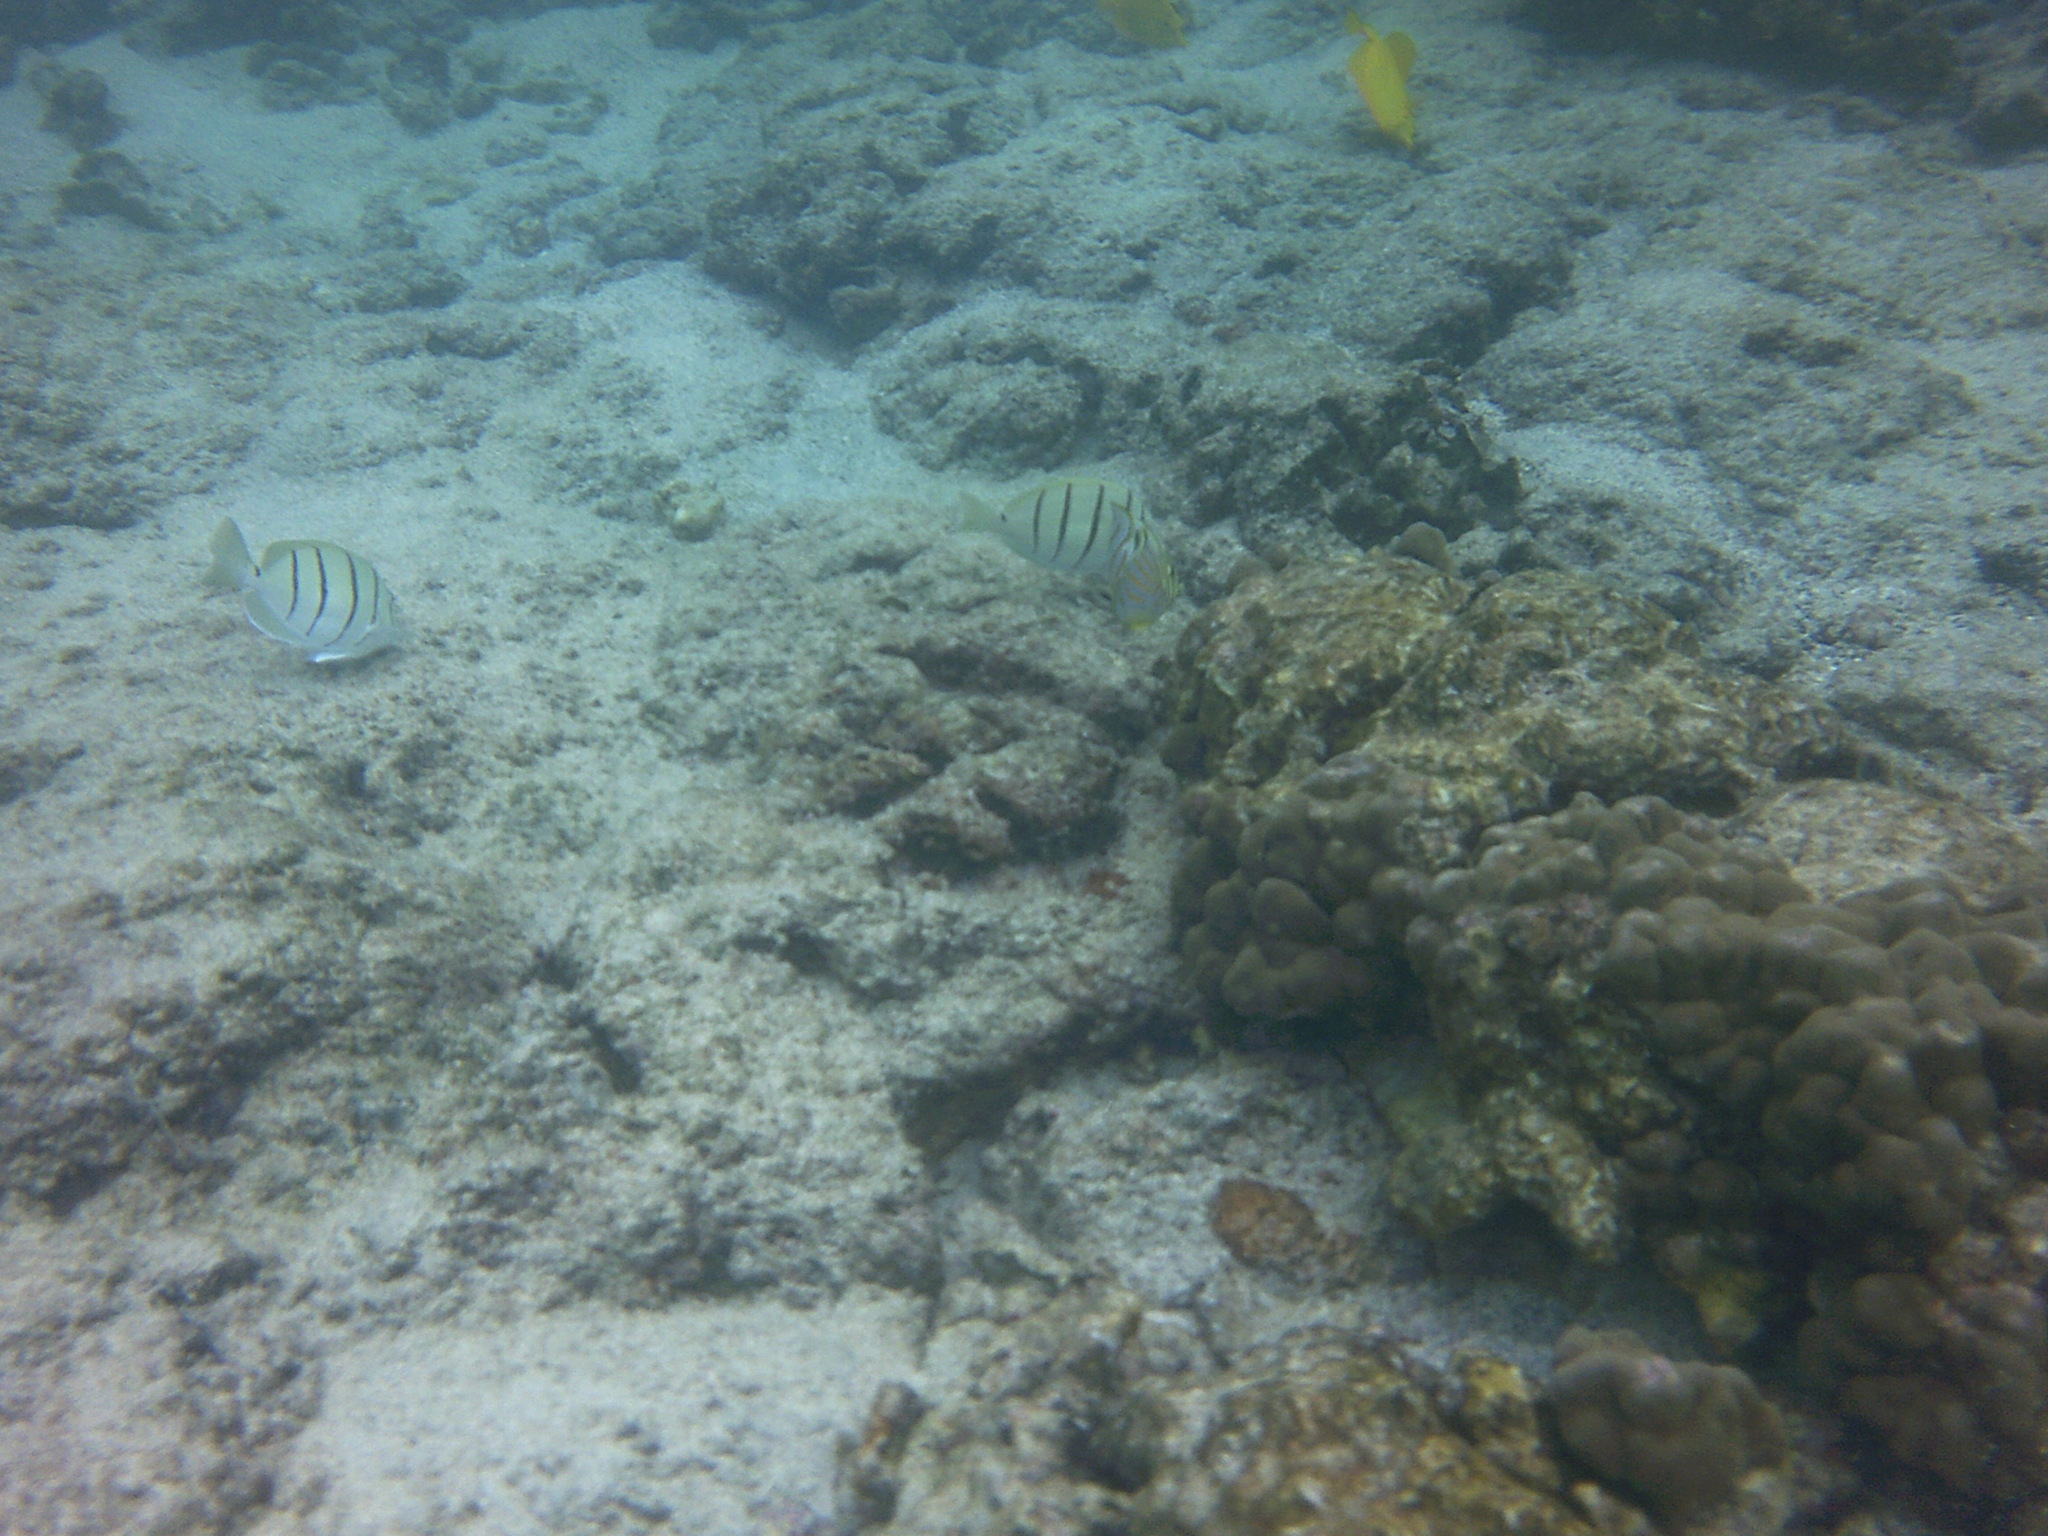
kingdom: Animalia
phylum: Chordata
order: Perciformes
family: Acanthuridae
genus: Acanthurus
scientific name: Acanthurus triostegus
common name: Convict surgeonfish
